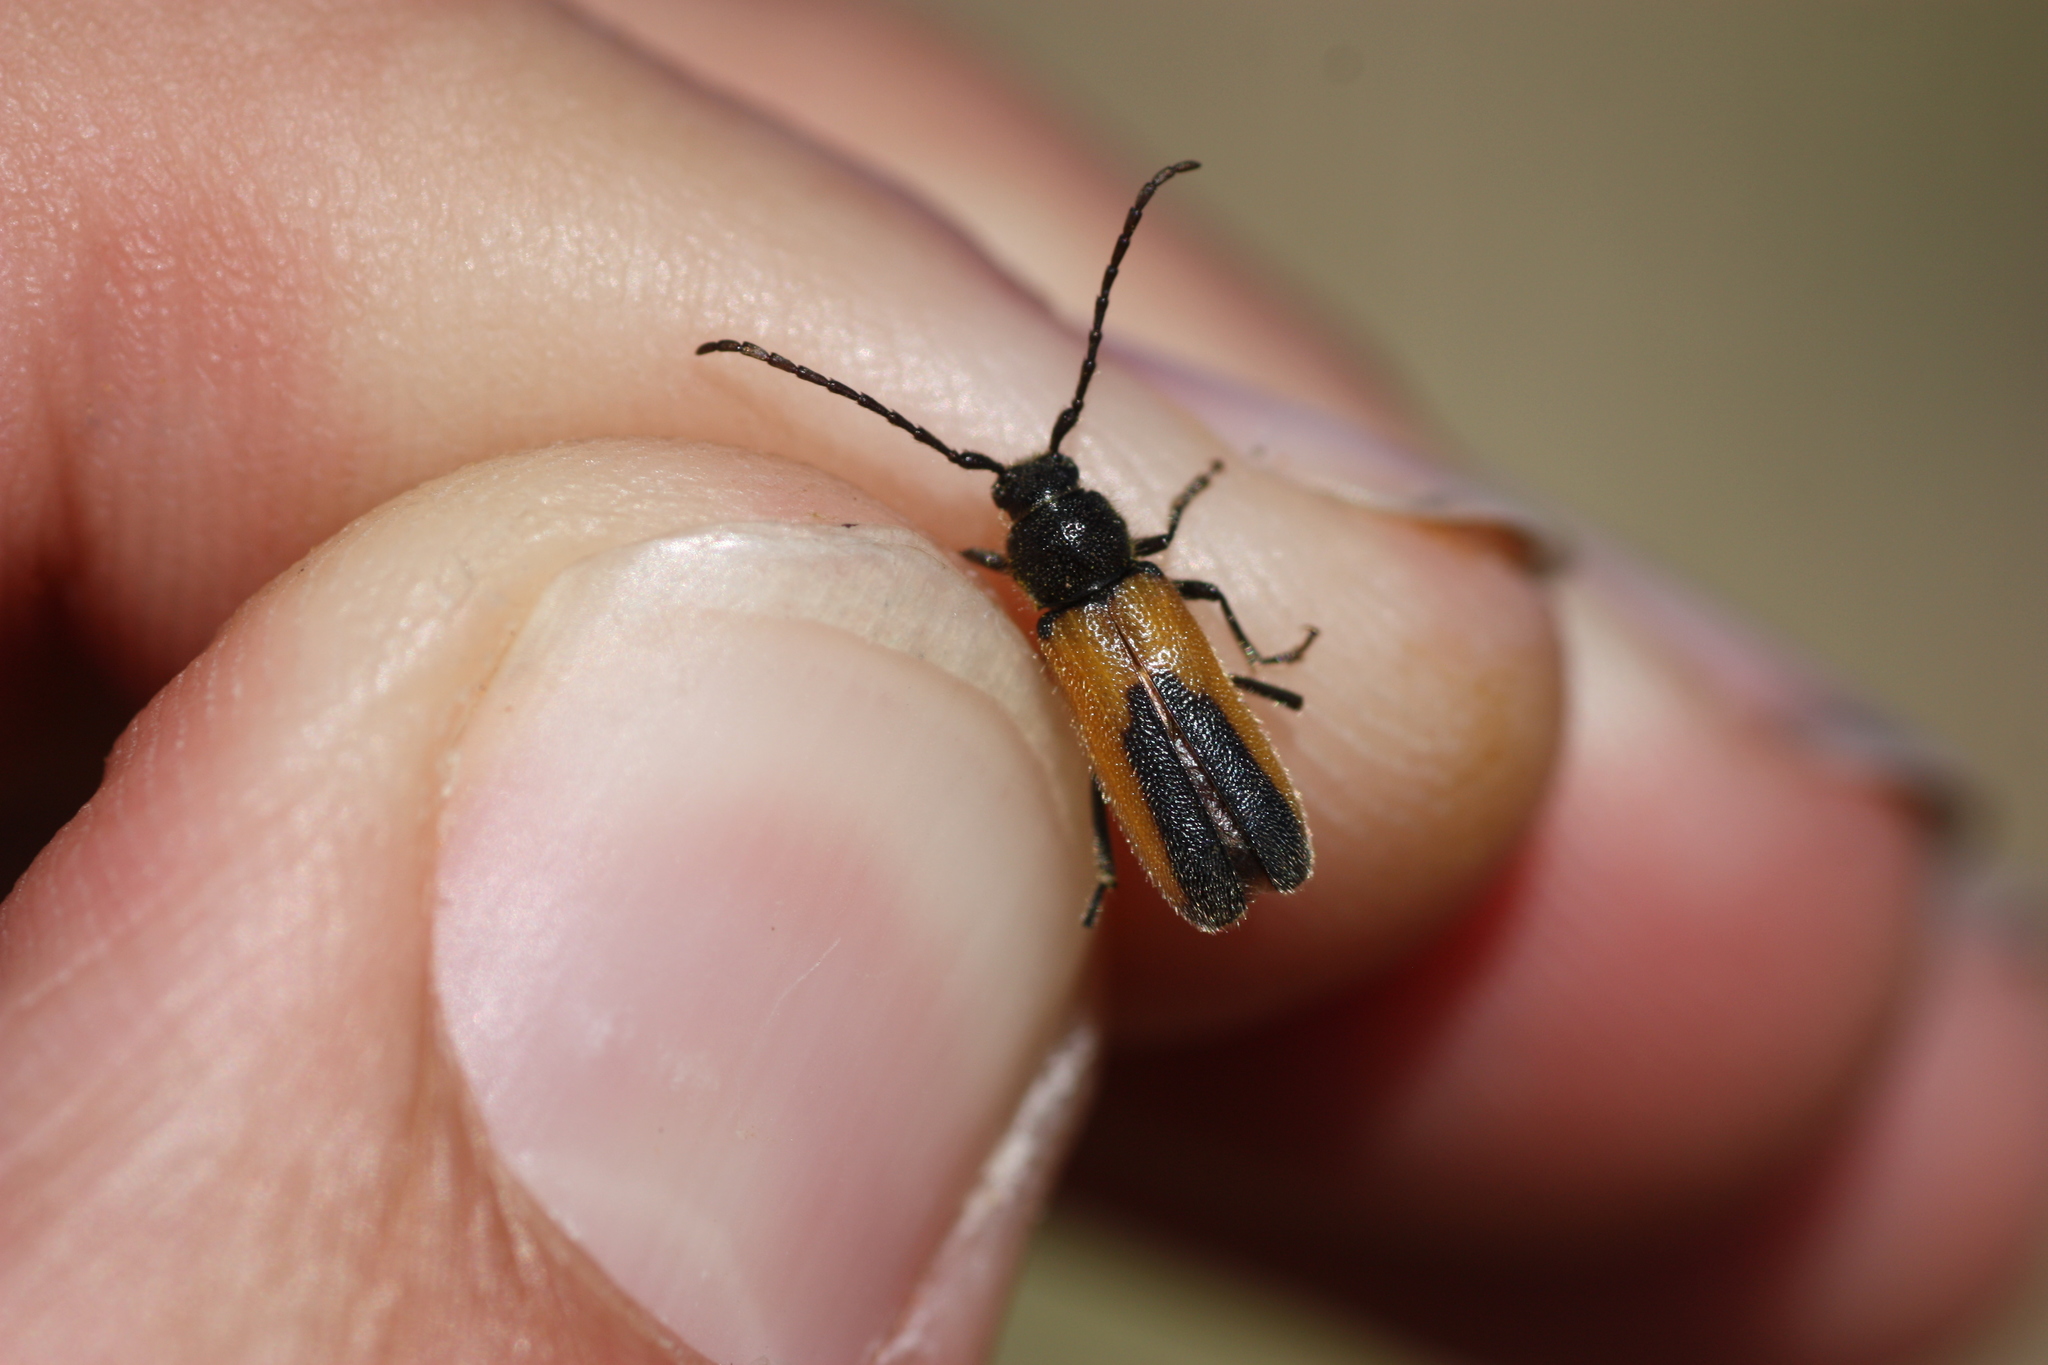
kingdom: Animalia
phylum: Arthropoda
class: Insecta
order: Coleoptera
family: Cerambycidae
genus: Crossidius
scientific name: Crossidius pulchellus
